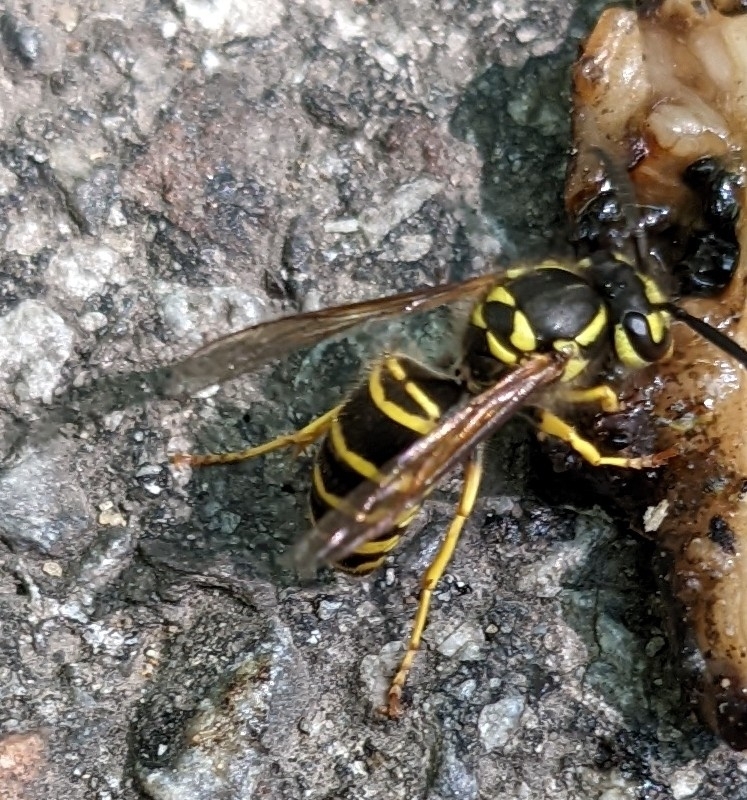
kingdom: Animalia
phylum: Arthropoda
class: Insecta
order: Hymenoptera
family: Vespidae
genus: Vespula
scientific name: Vespula maculifrons
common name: Eastern yellowjacket
